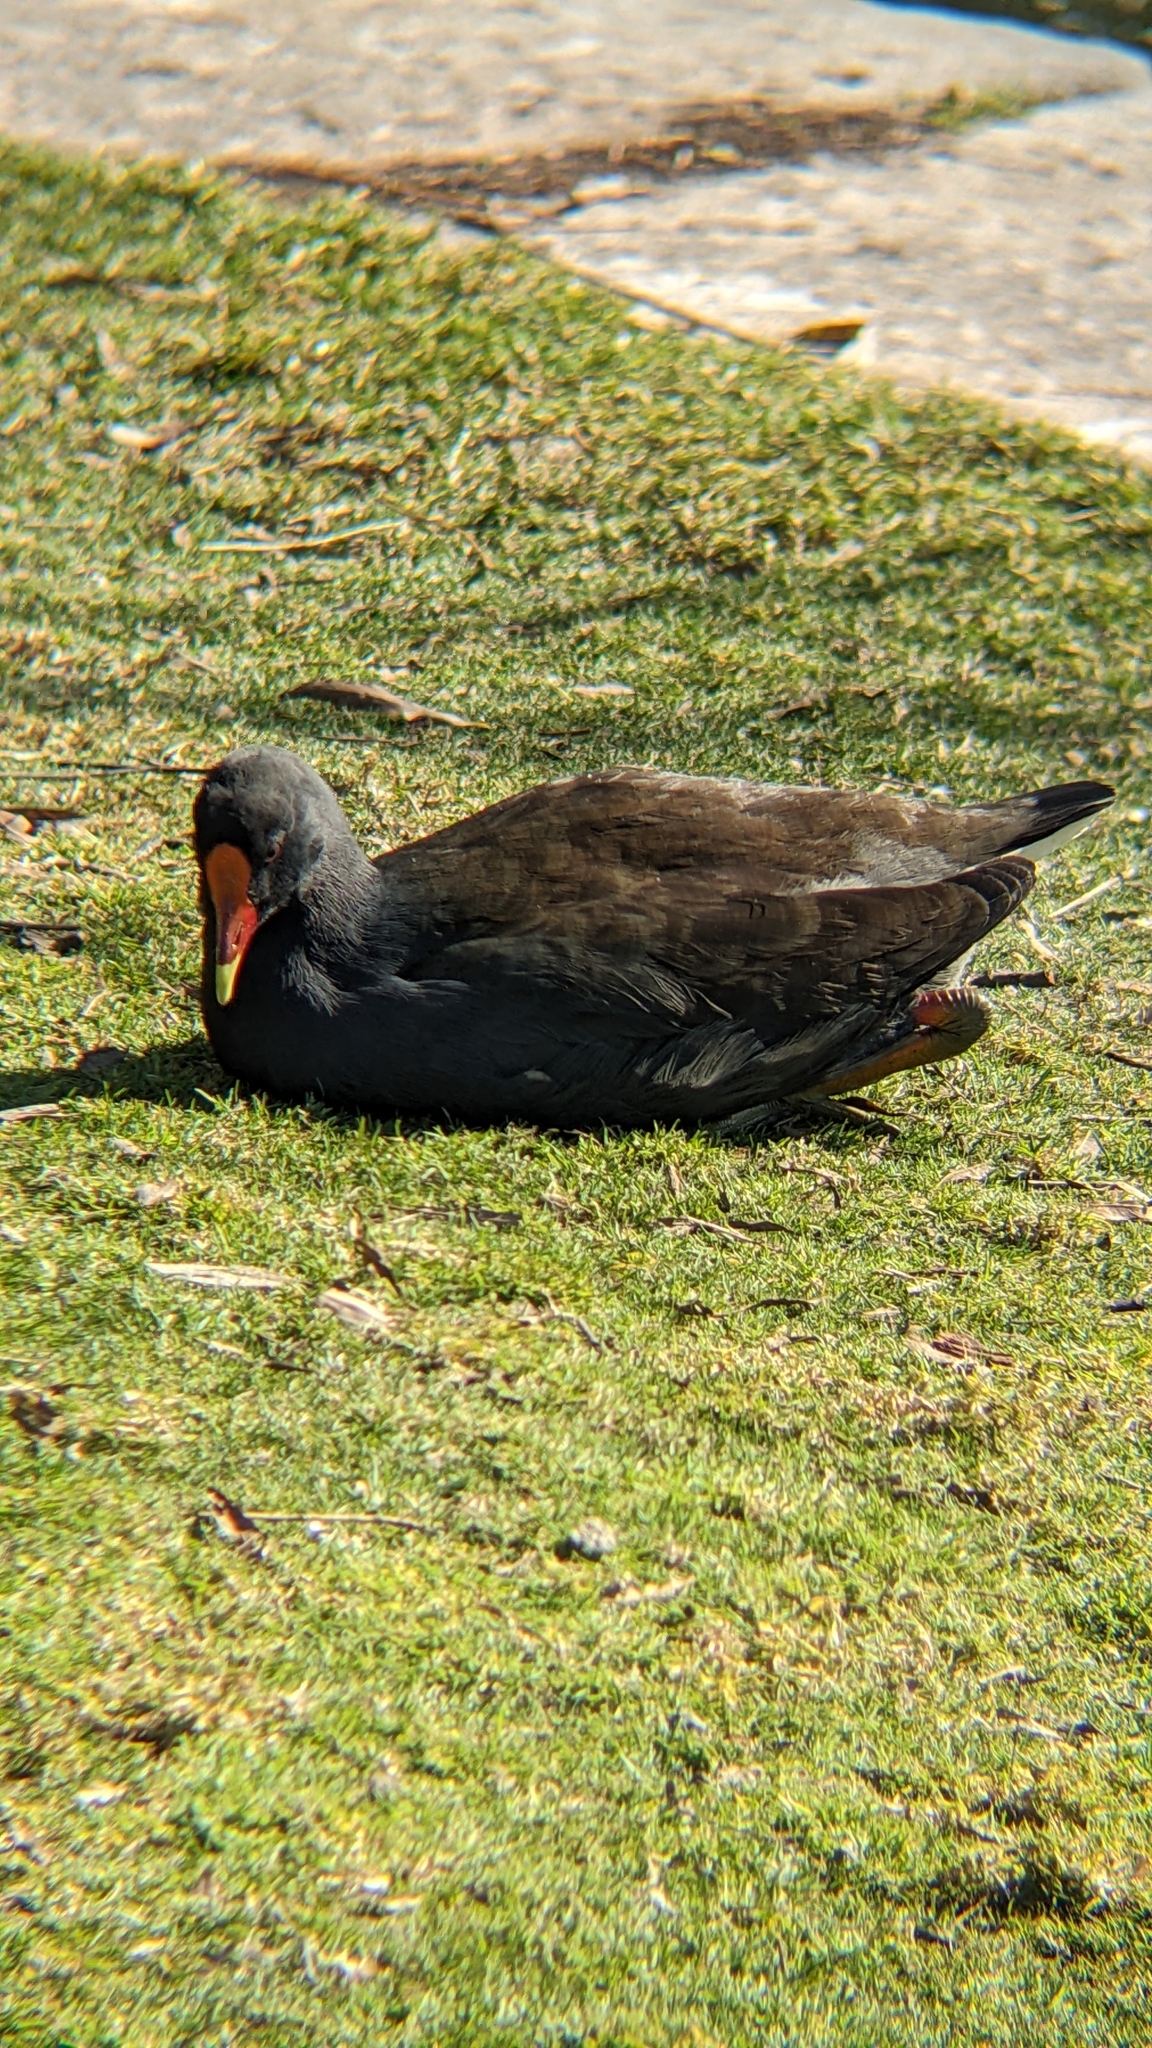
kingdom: Animalia
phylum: Chordata
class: Aves
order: Gruiformes
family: Rallidae
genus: Gallinula
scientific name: Gallinula tenebrosa
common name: Dusky moorhen
